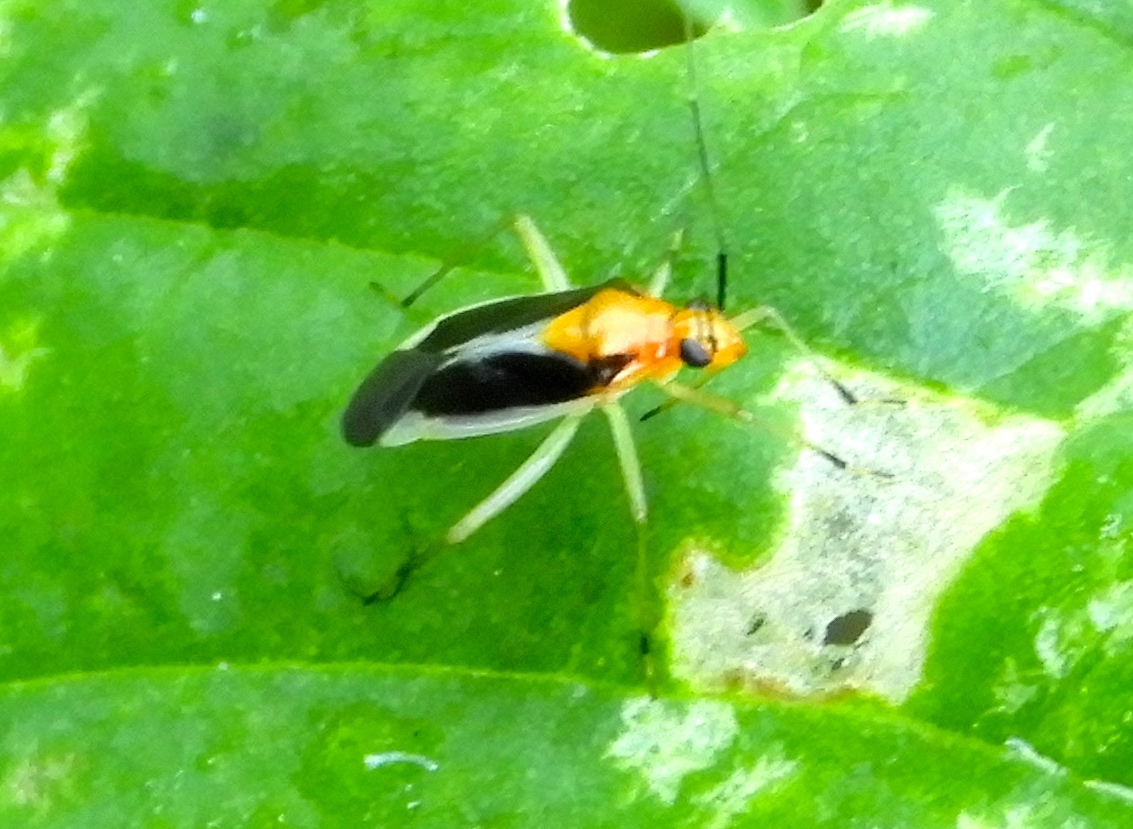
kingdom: Animalia
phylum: Arthropoda
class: Insecta
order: Hemiptera
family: Miridae
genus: Ganocapsus
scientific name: Ganocapsus filiformis
